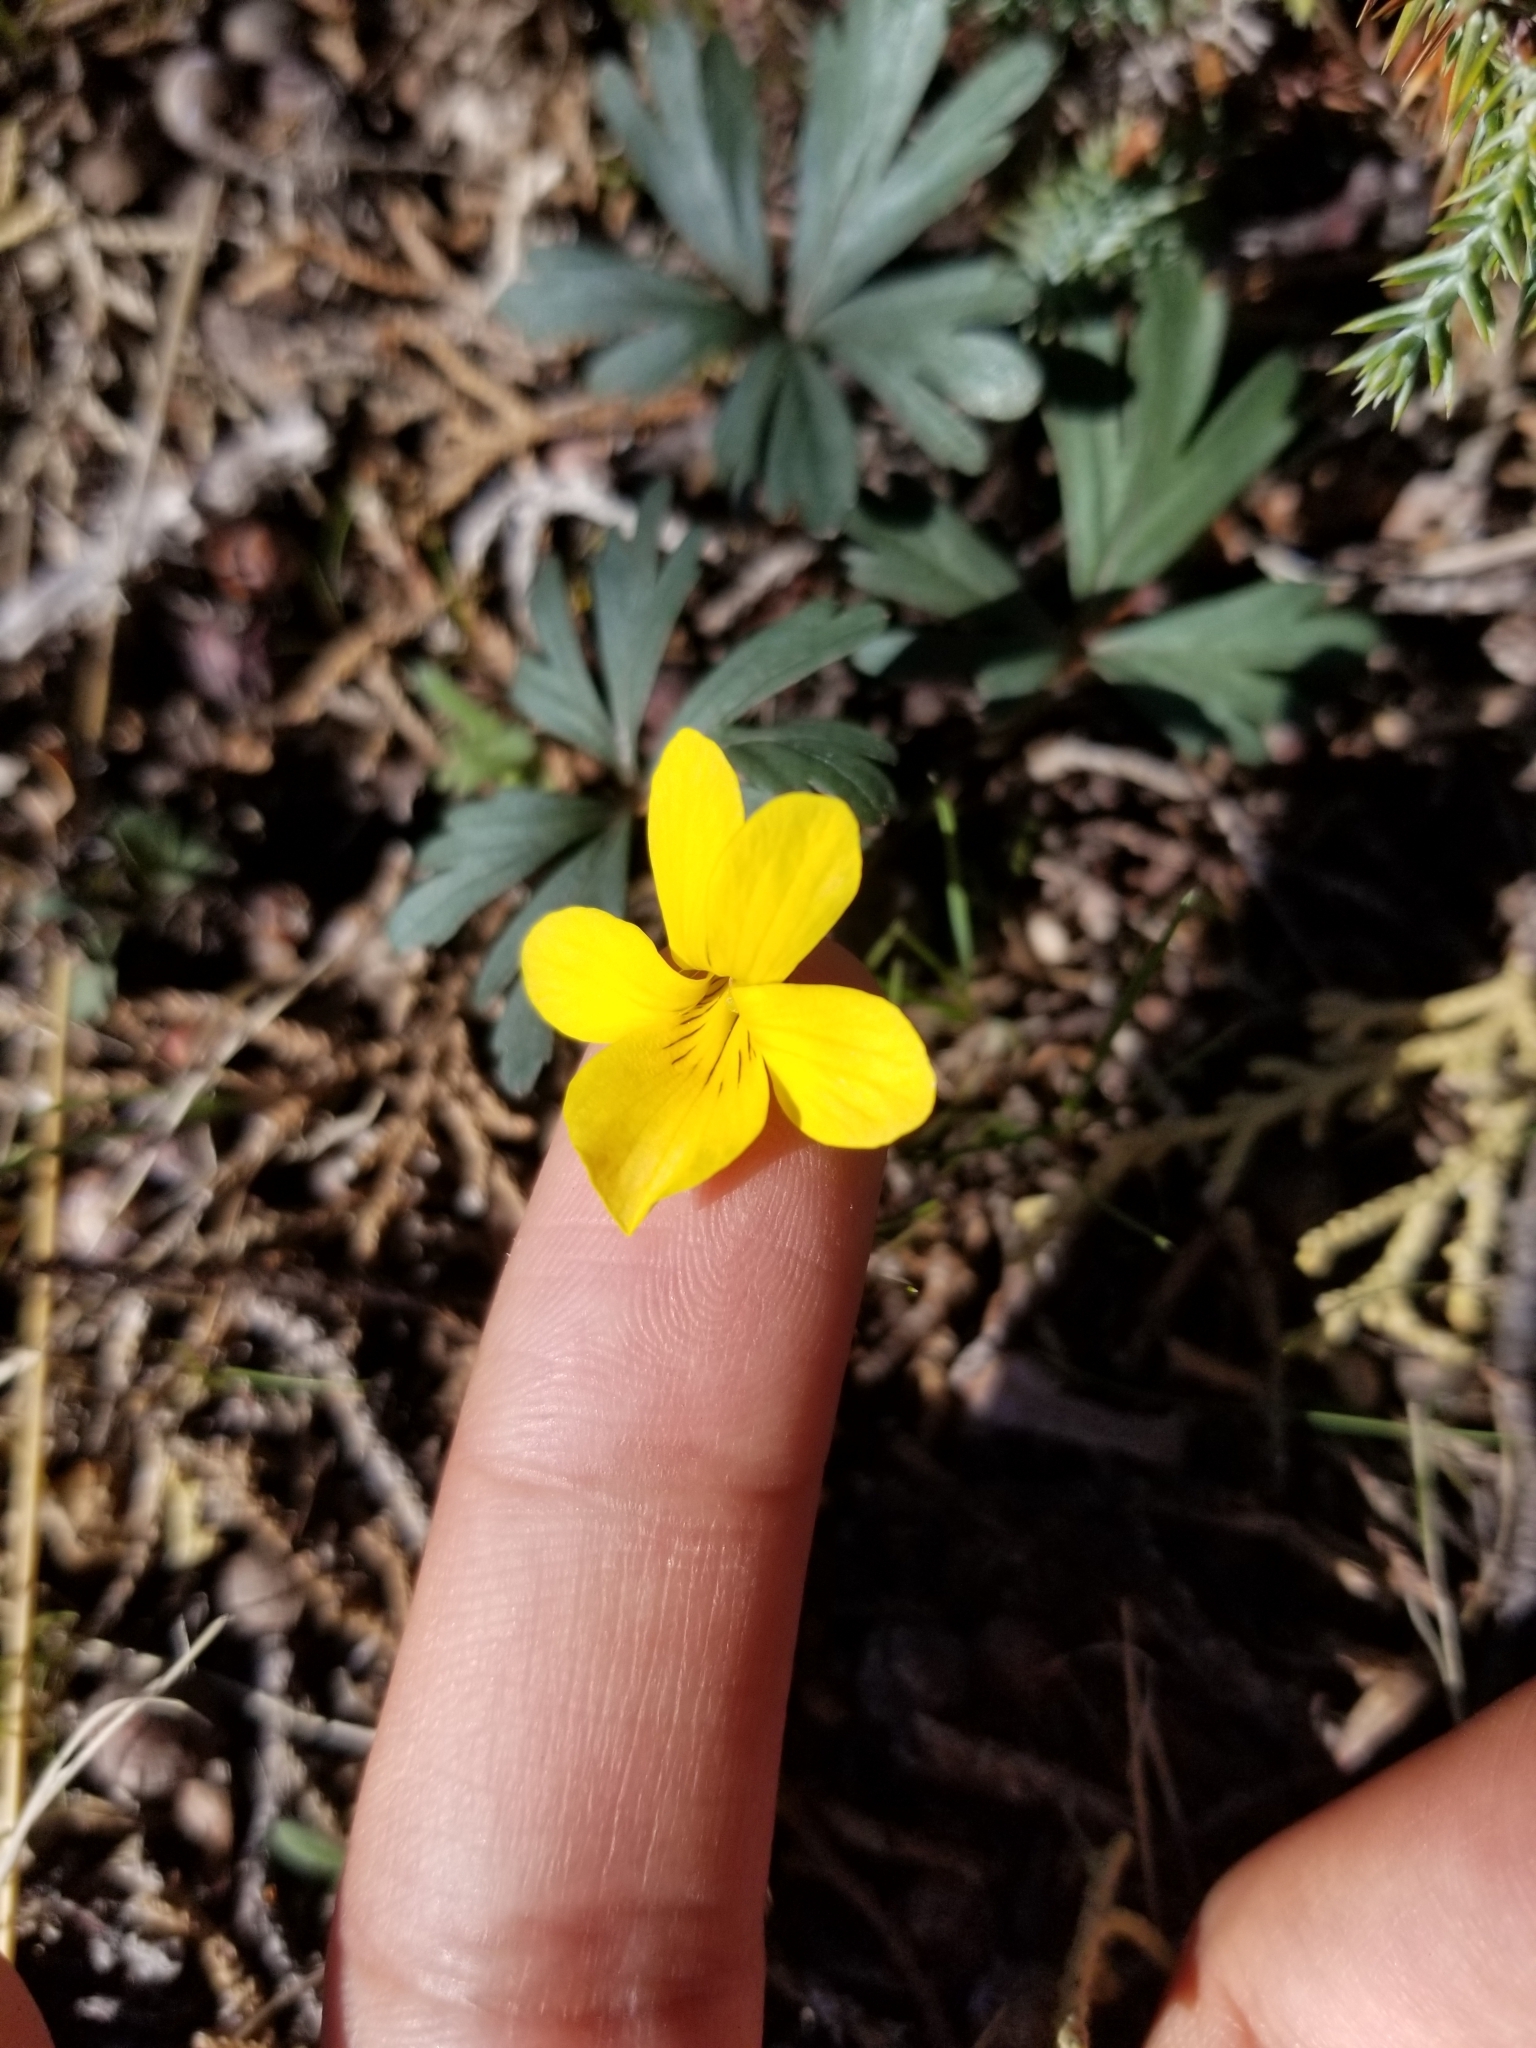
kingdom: Plantae
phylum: Tracheophyta
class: Magnoliopsida
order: Malpighiales
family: Violaceae
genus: Viola
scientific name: Viola sheltonii
